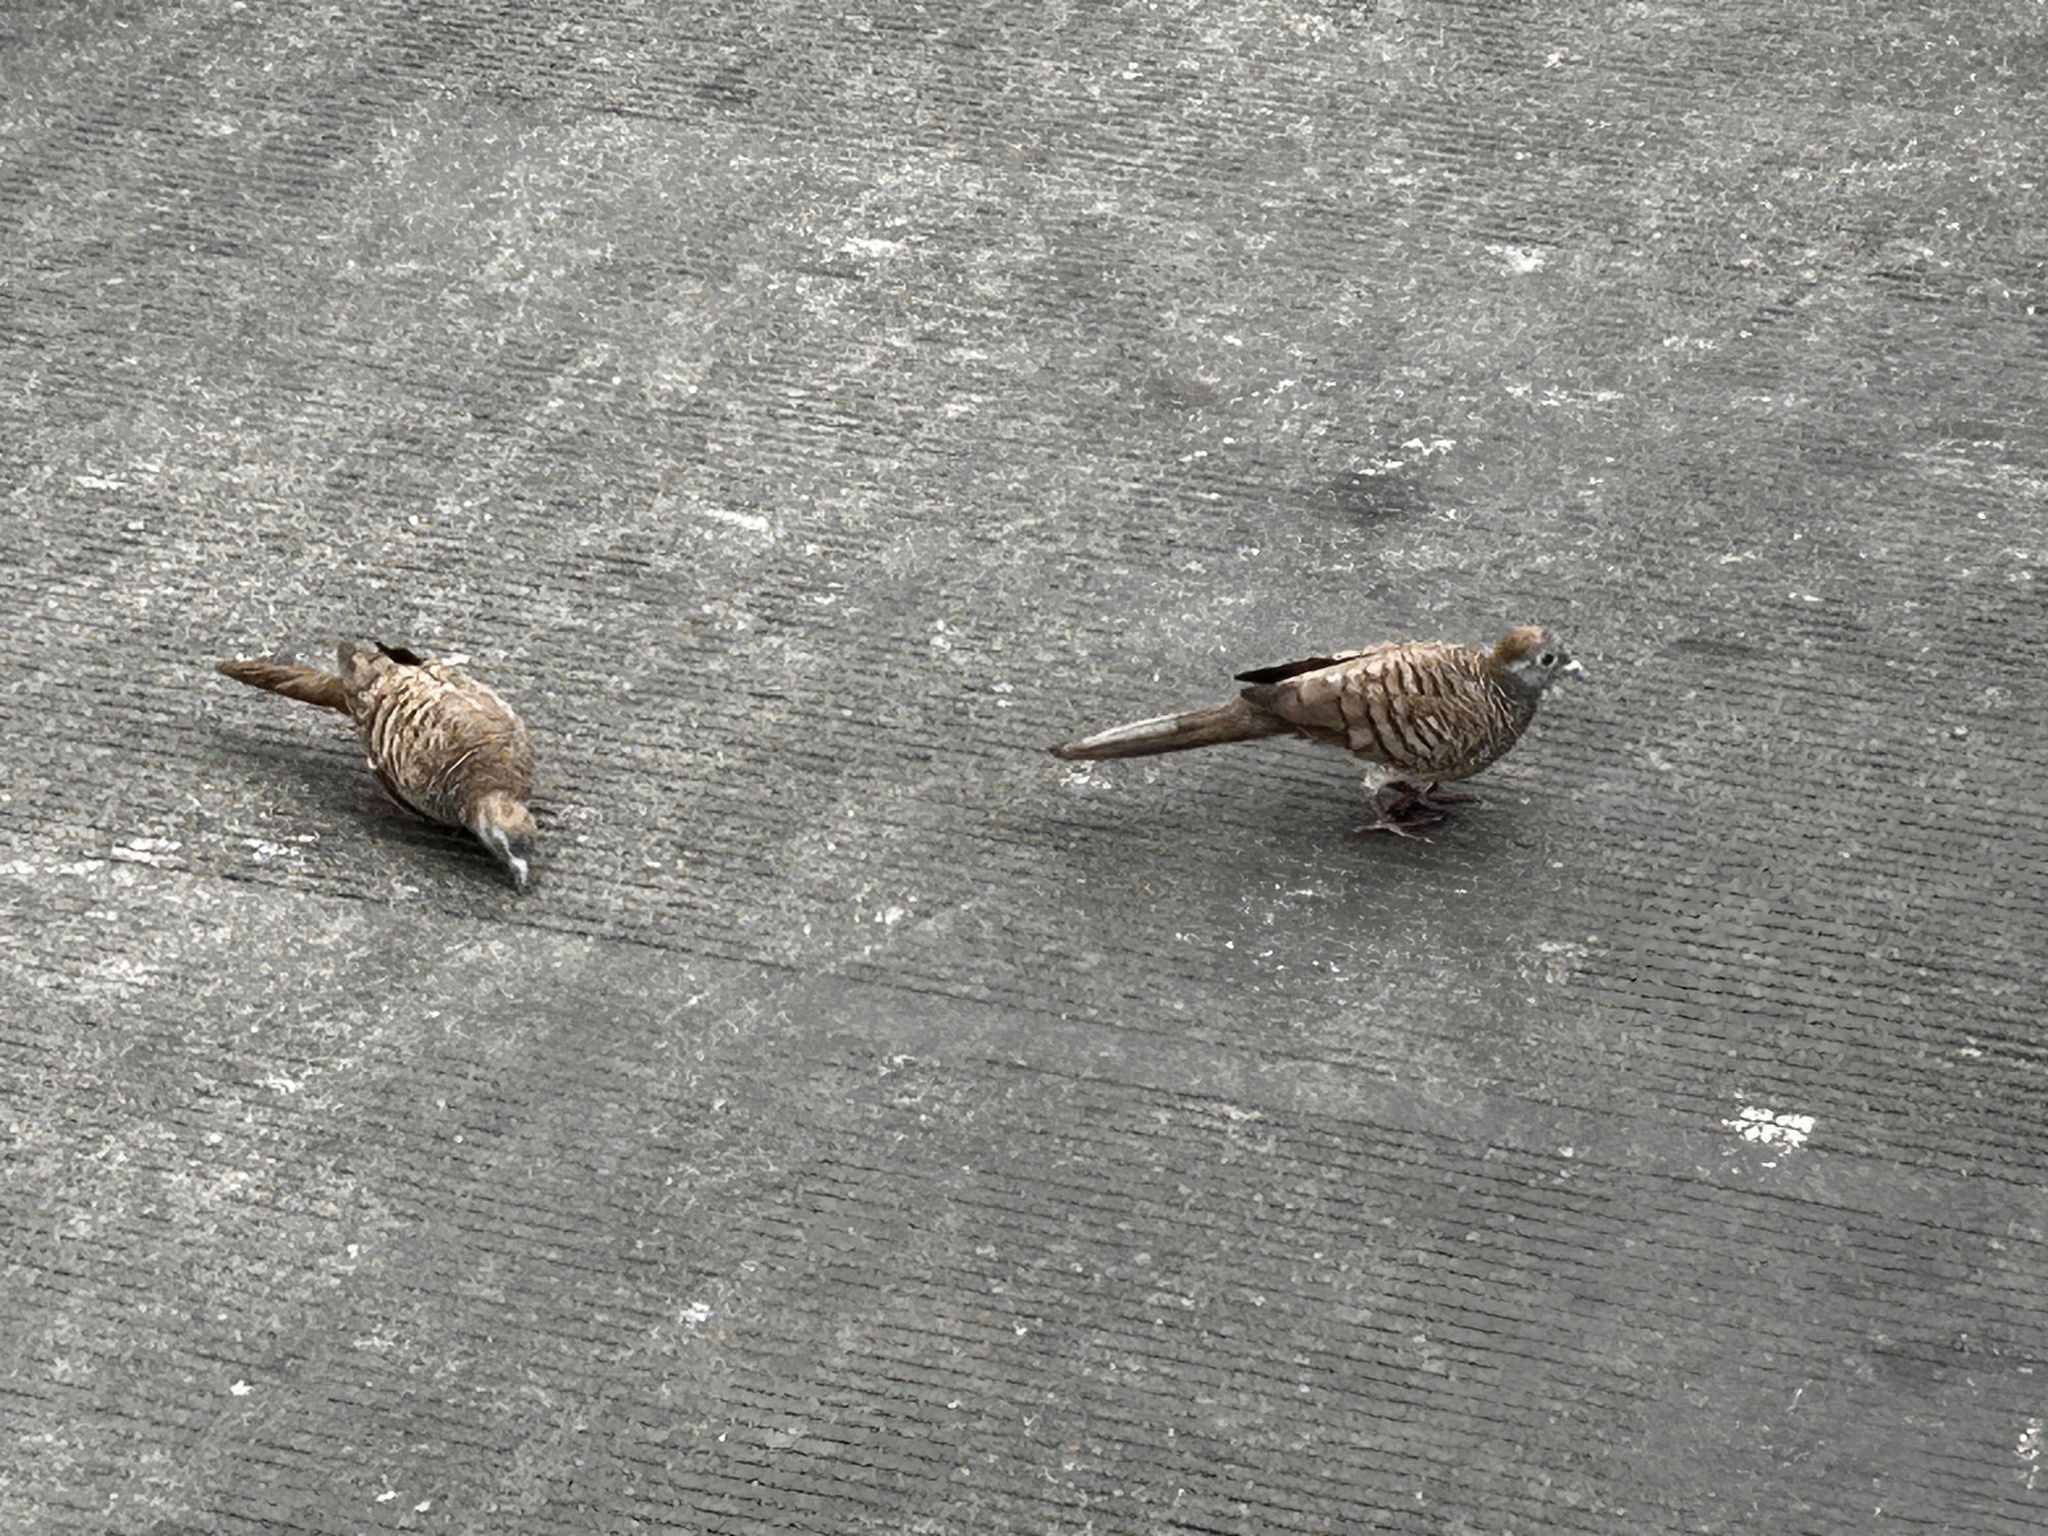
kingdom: Animalia
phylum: Chordata
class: Aves
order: Columbiformes
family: Columbidae
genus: Geopelia
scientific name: Geopelia striata
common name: Zebra dove
